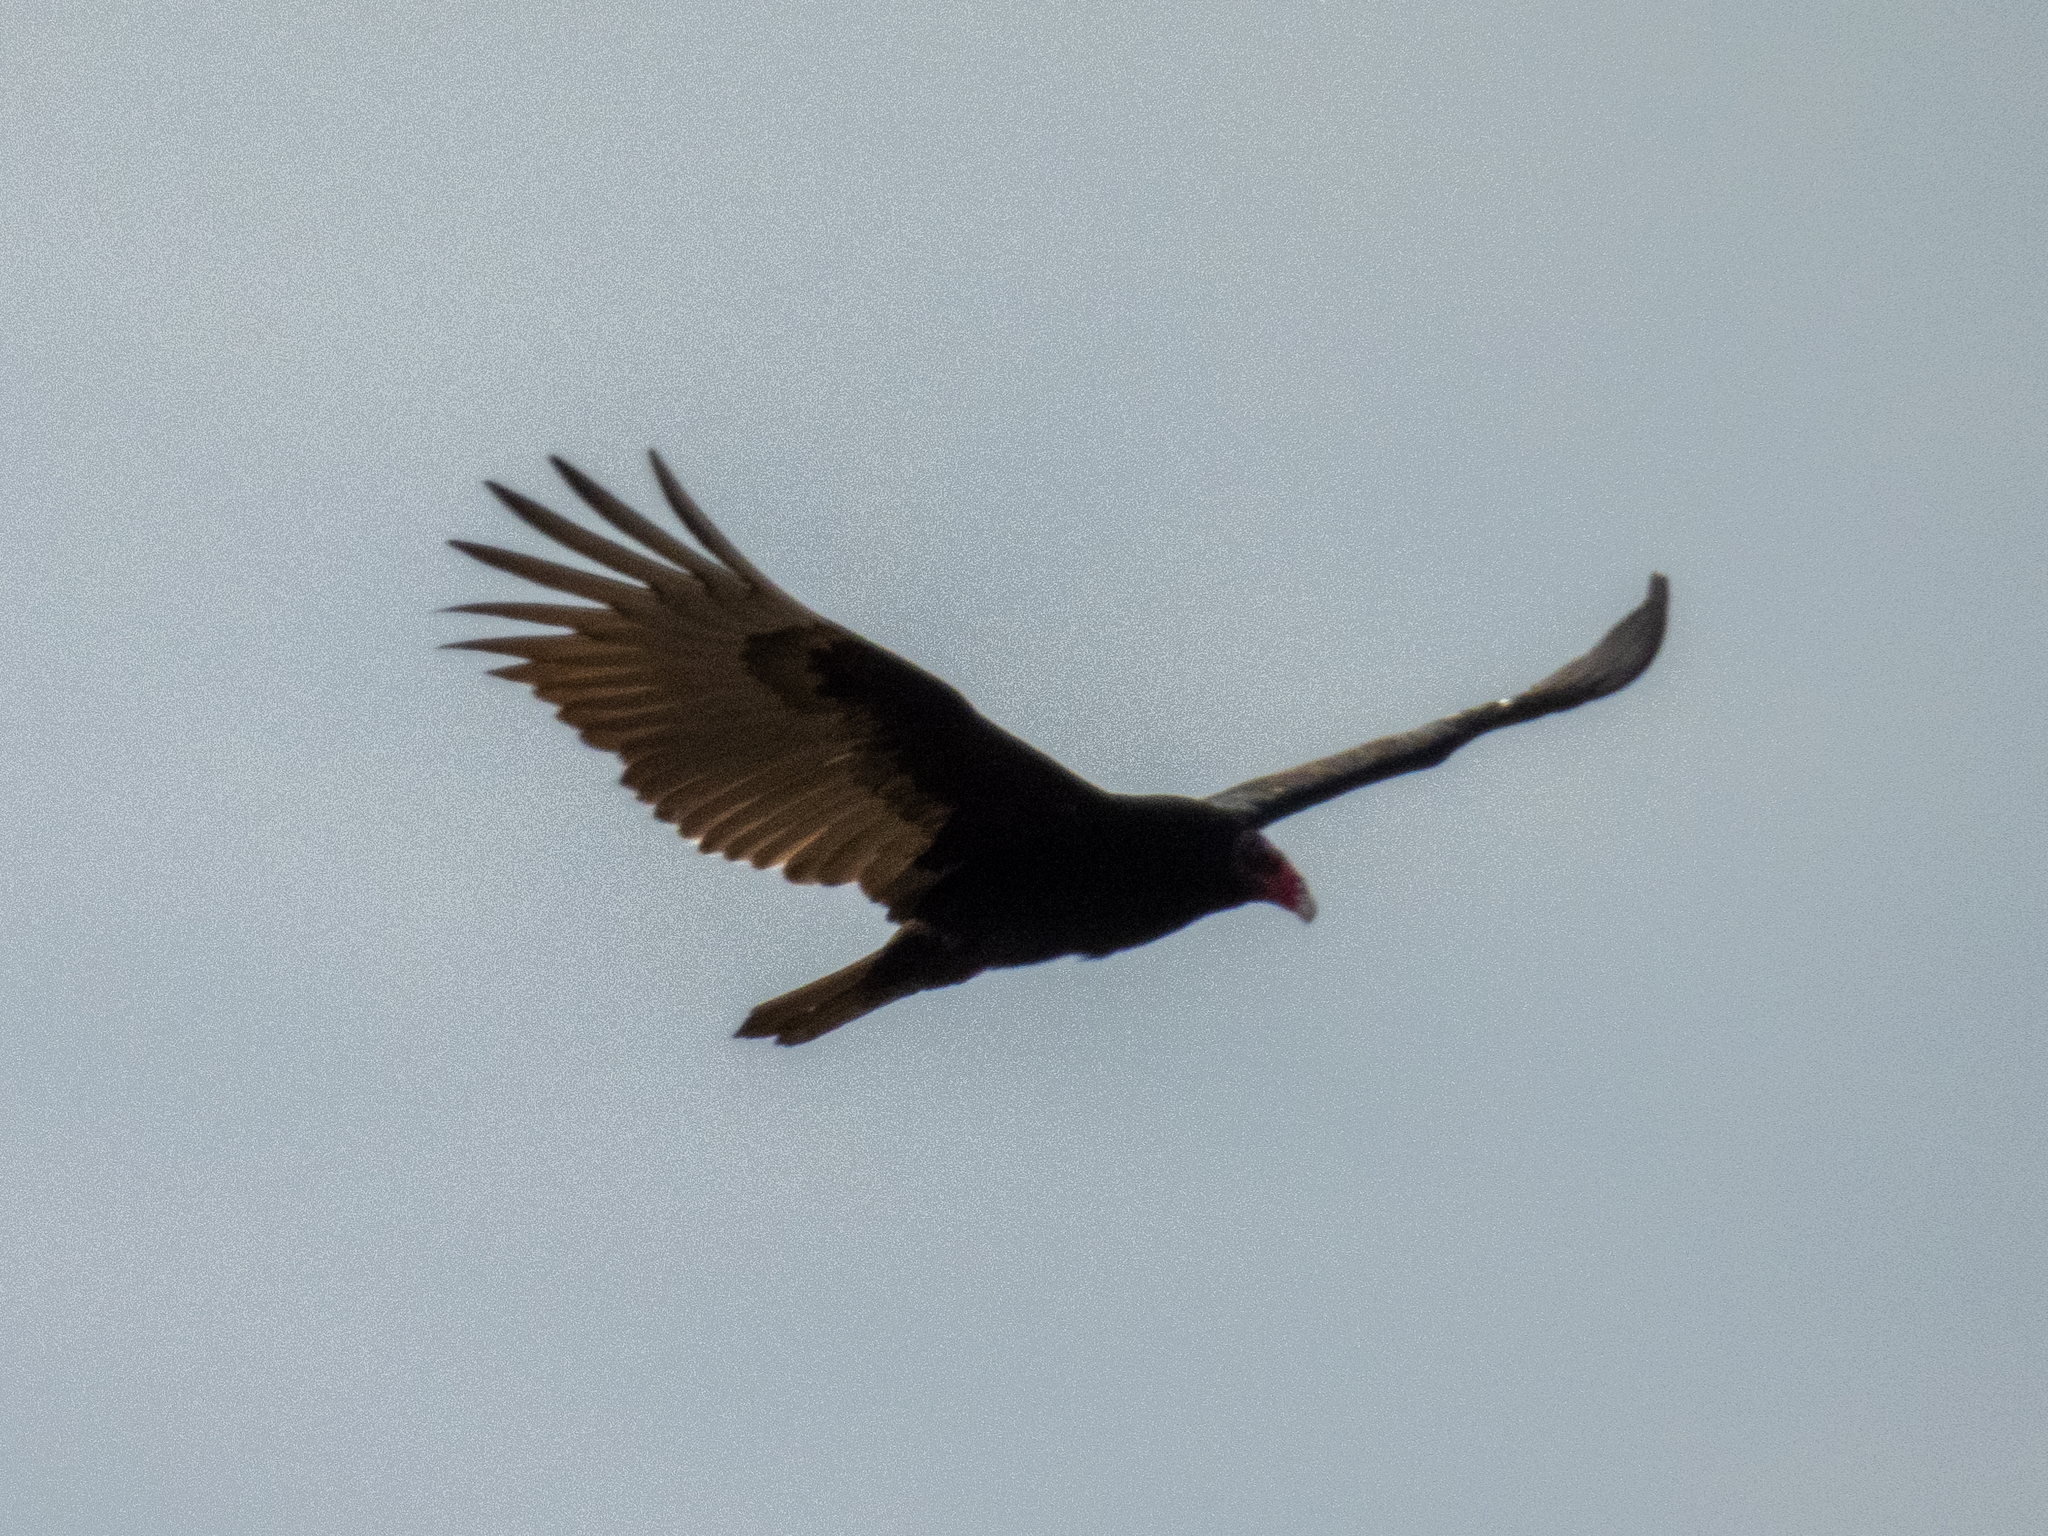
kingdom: Animalia
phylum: Chordata
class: Aves
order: Accipitriformes
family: Cathartidae
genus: Cathartes
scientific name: Cathartes aura
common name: Turkey vulture
